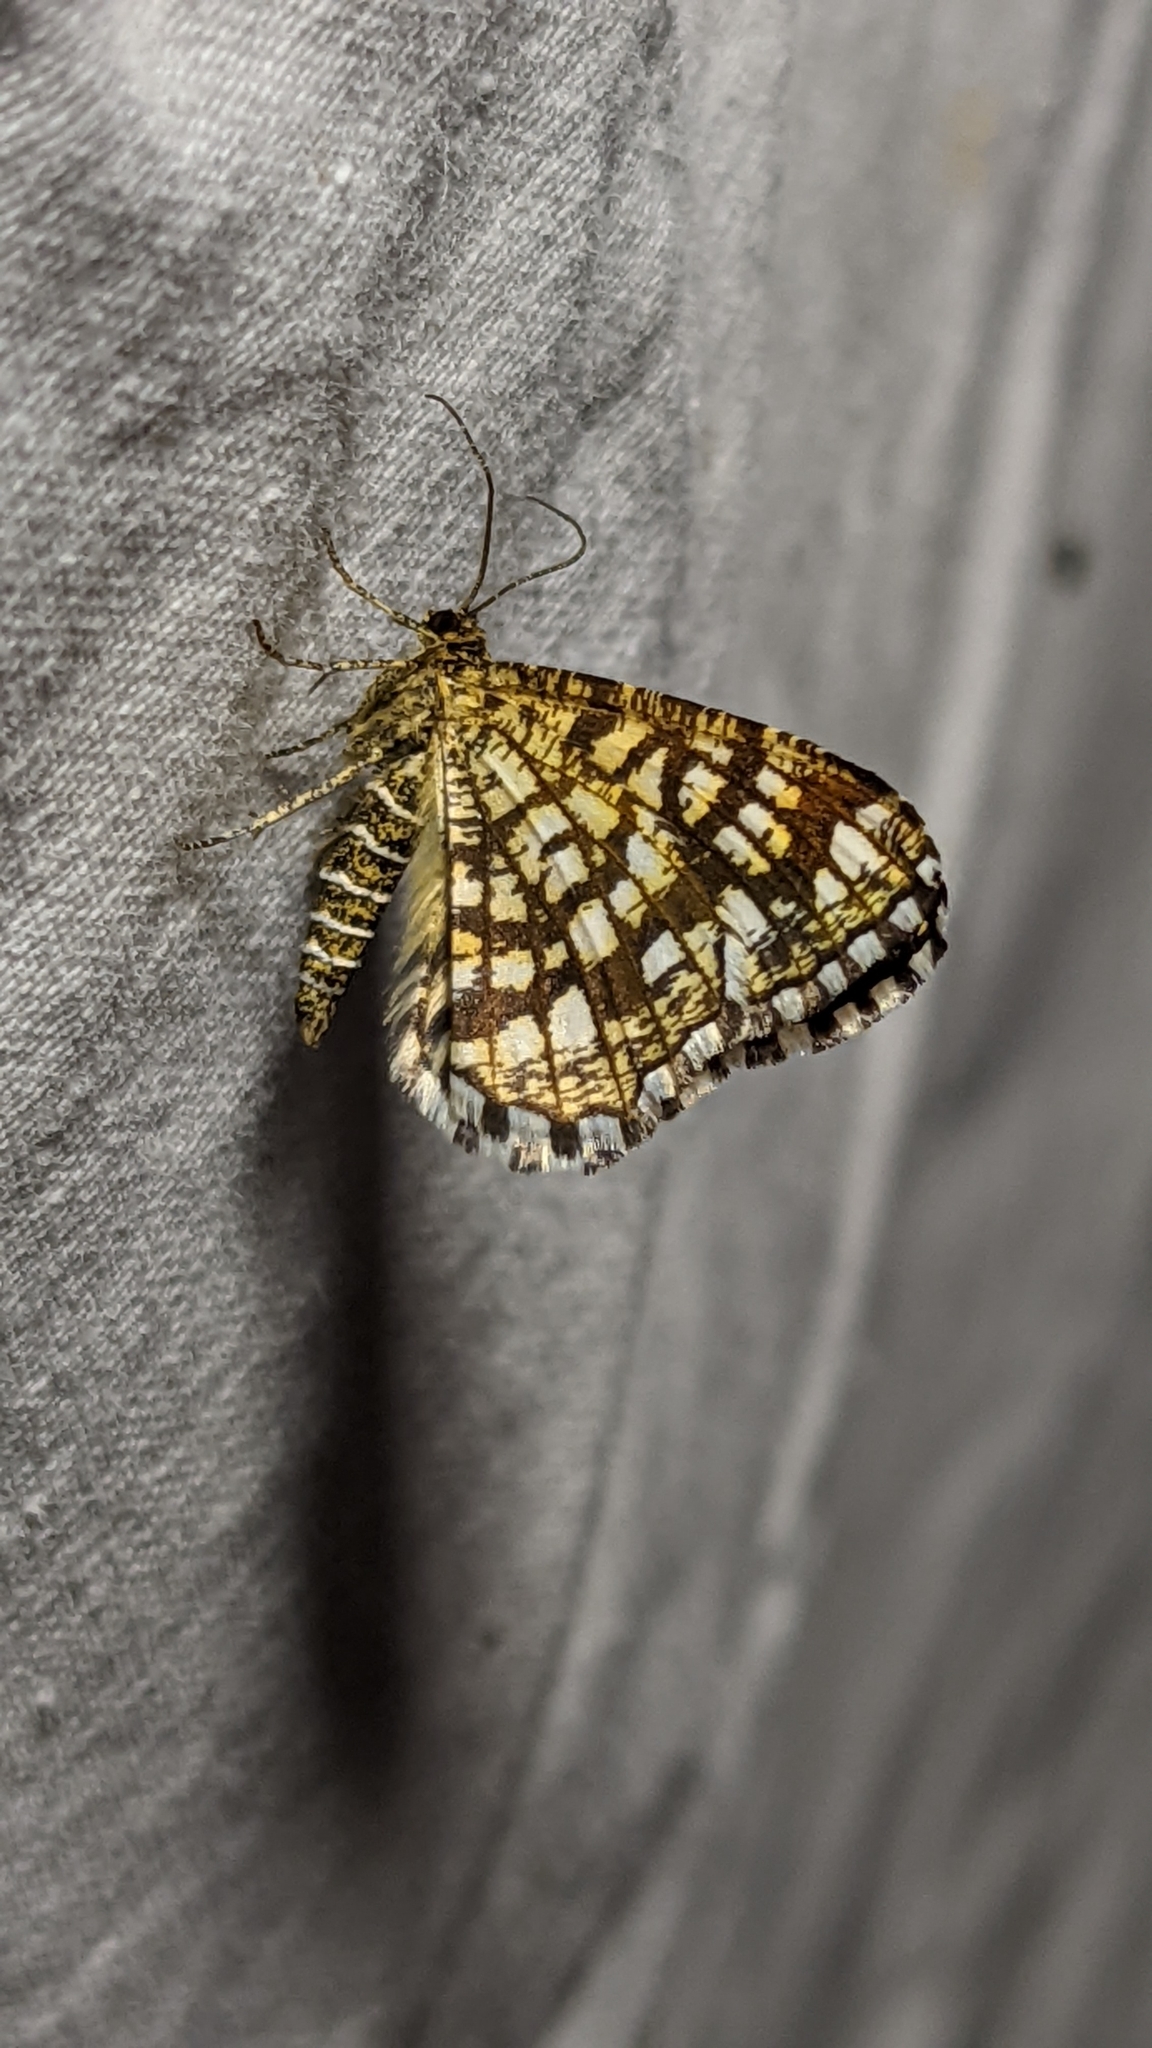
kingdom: Animalia
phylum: Arthropoda
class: Insecta
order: Lepidoptera
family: Geometridae
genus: Chiasmia
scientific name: Chiasmia clathrata
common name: Latticed heath
